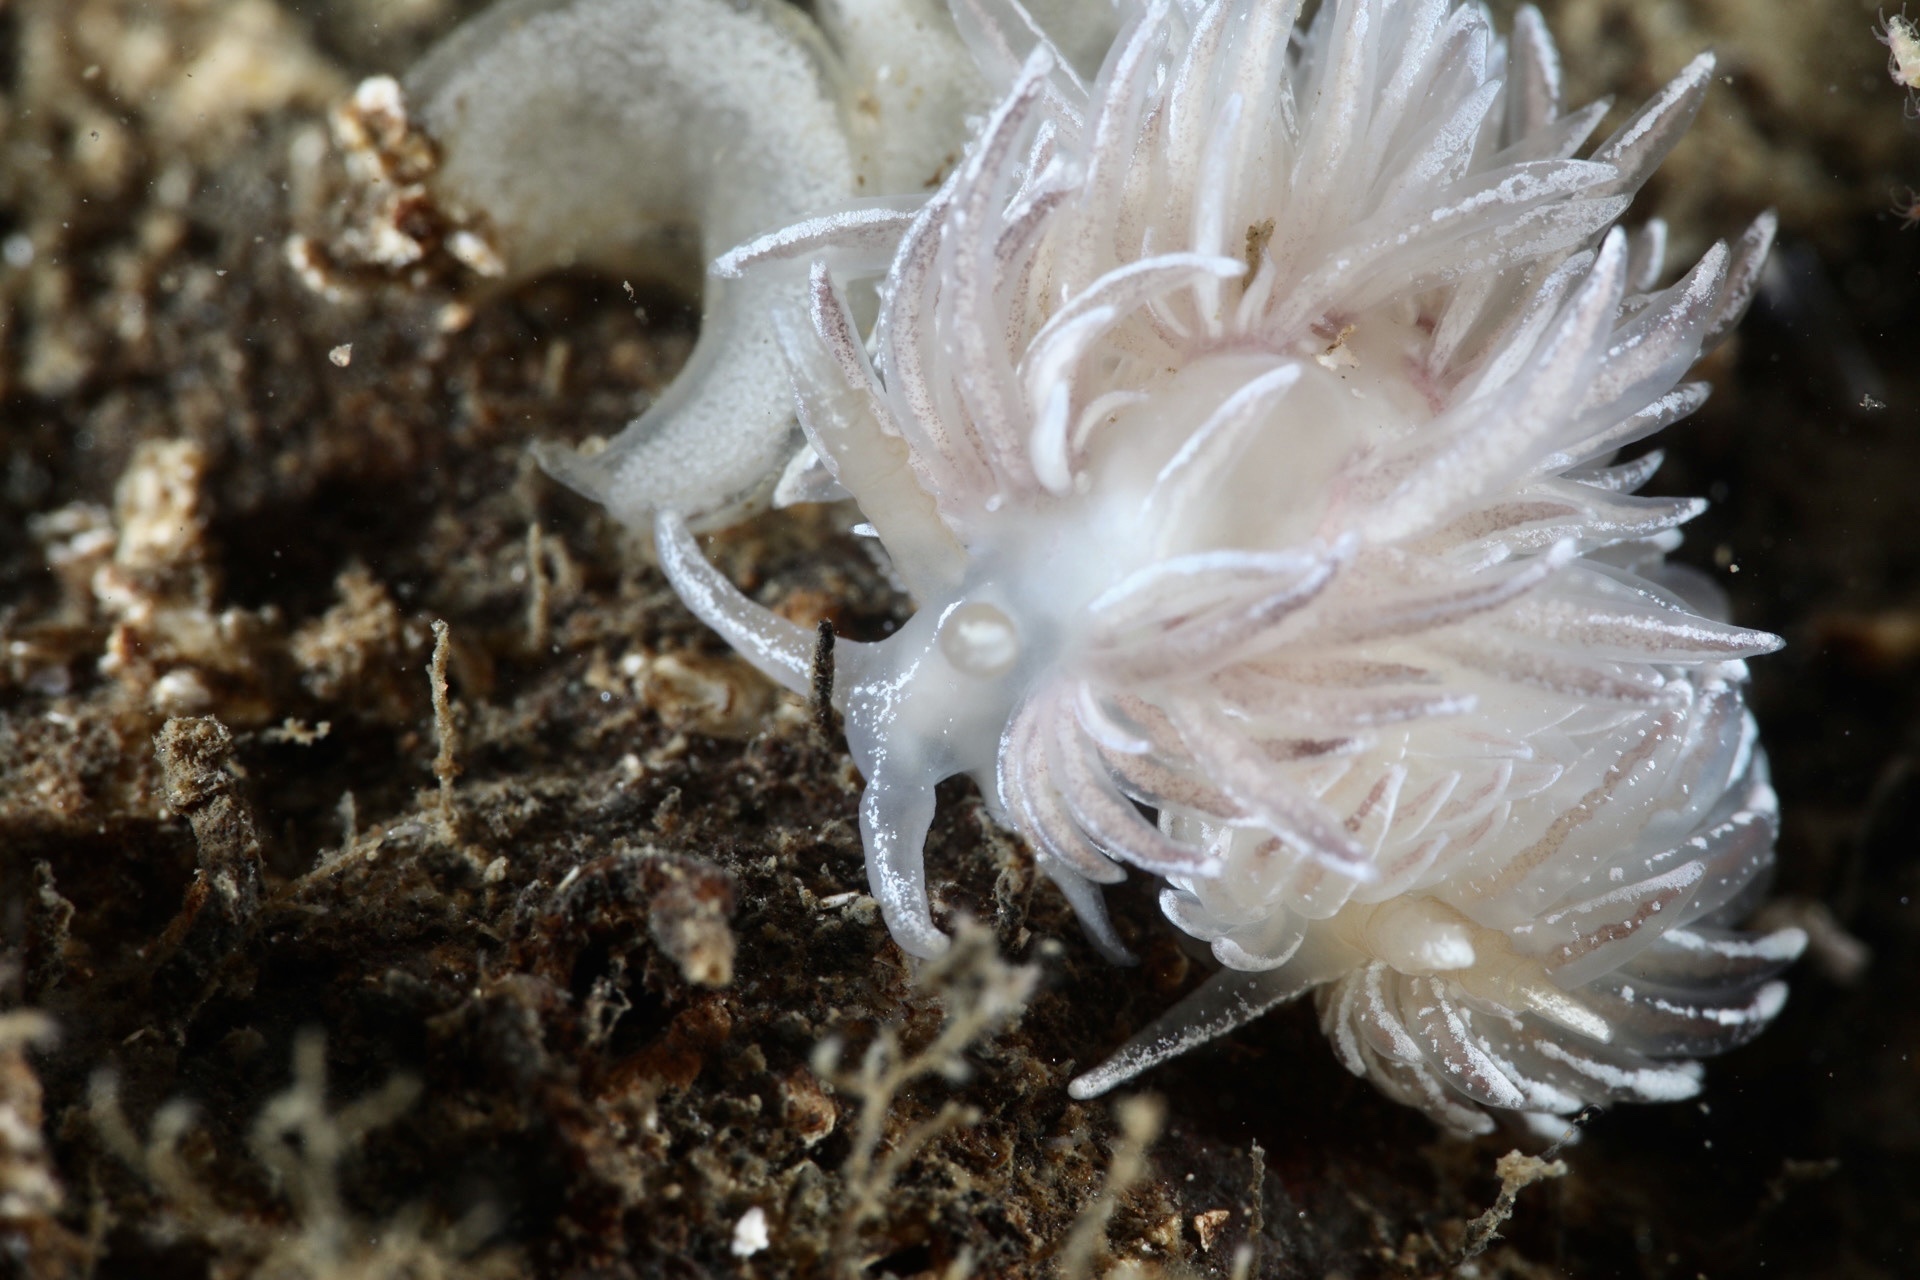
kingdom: Animalia
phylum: Mollusca
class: Gastropoda
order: Nudibranchia
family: Facelinidae
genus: Favorinus
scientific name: Favorinus blianus
